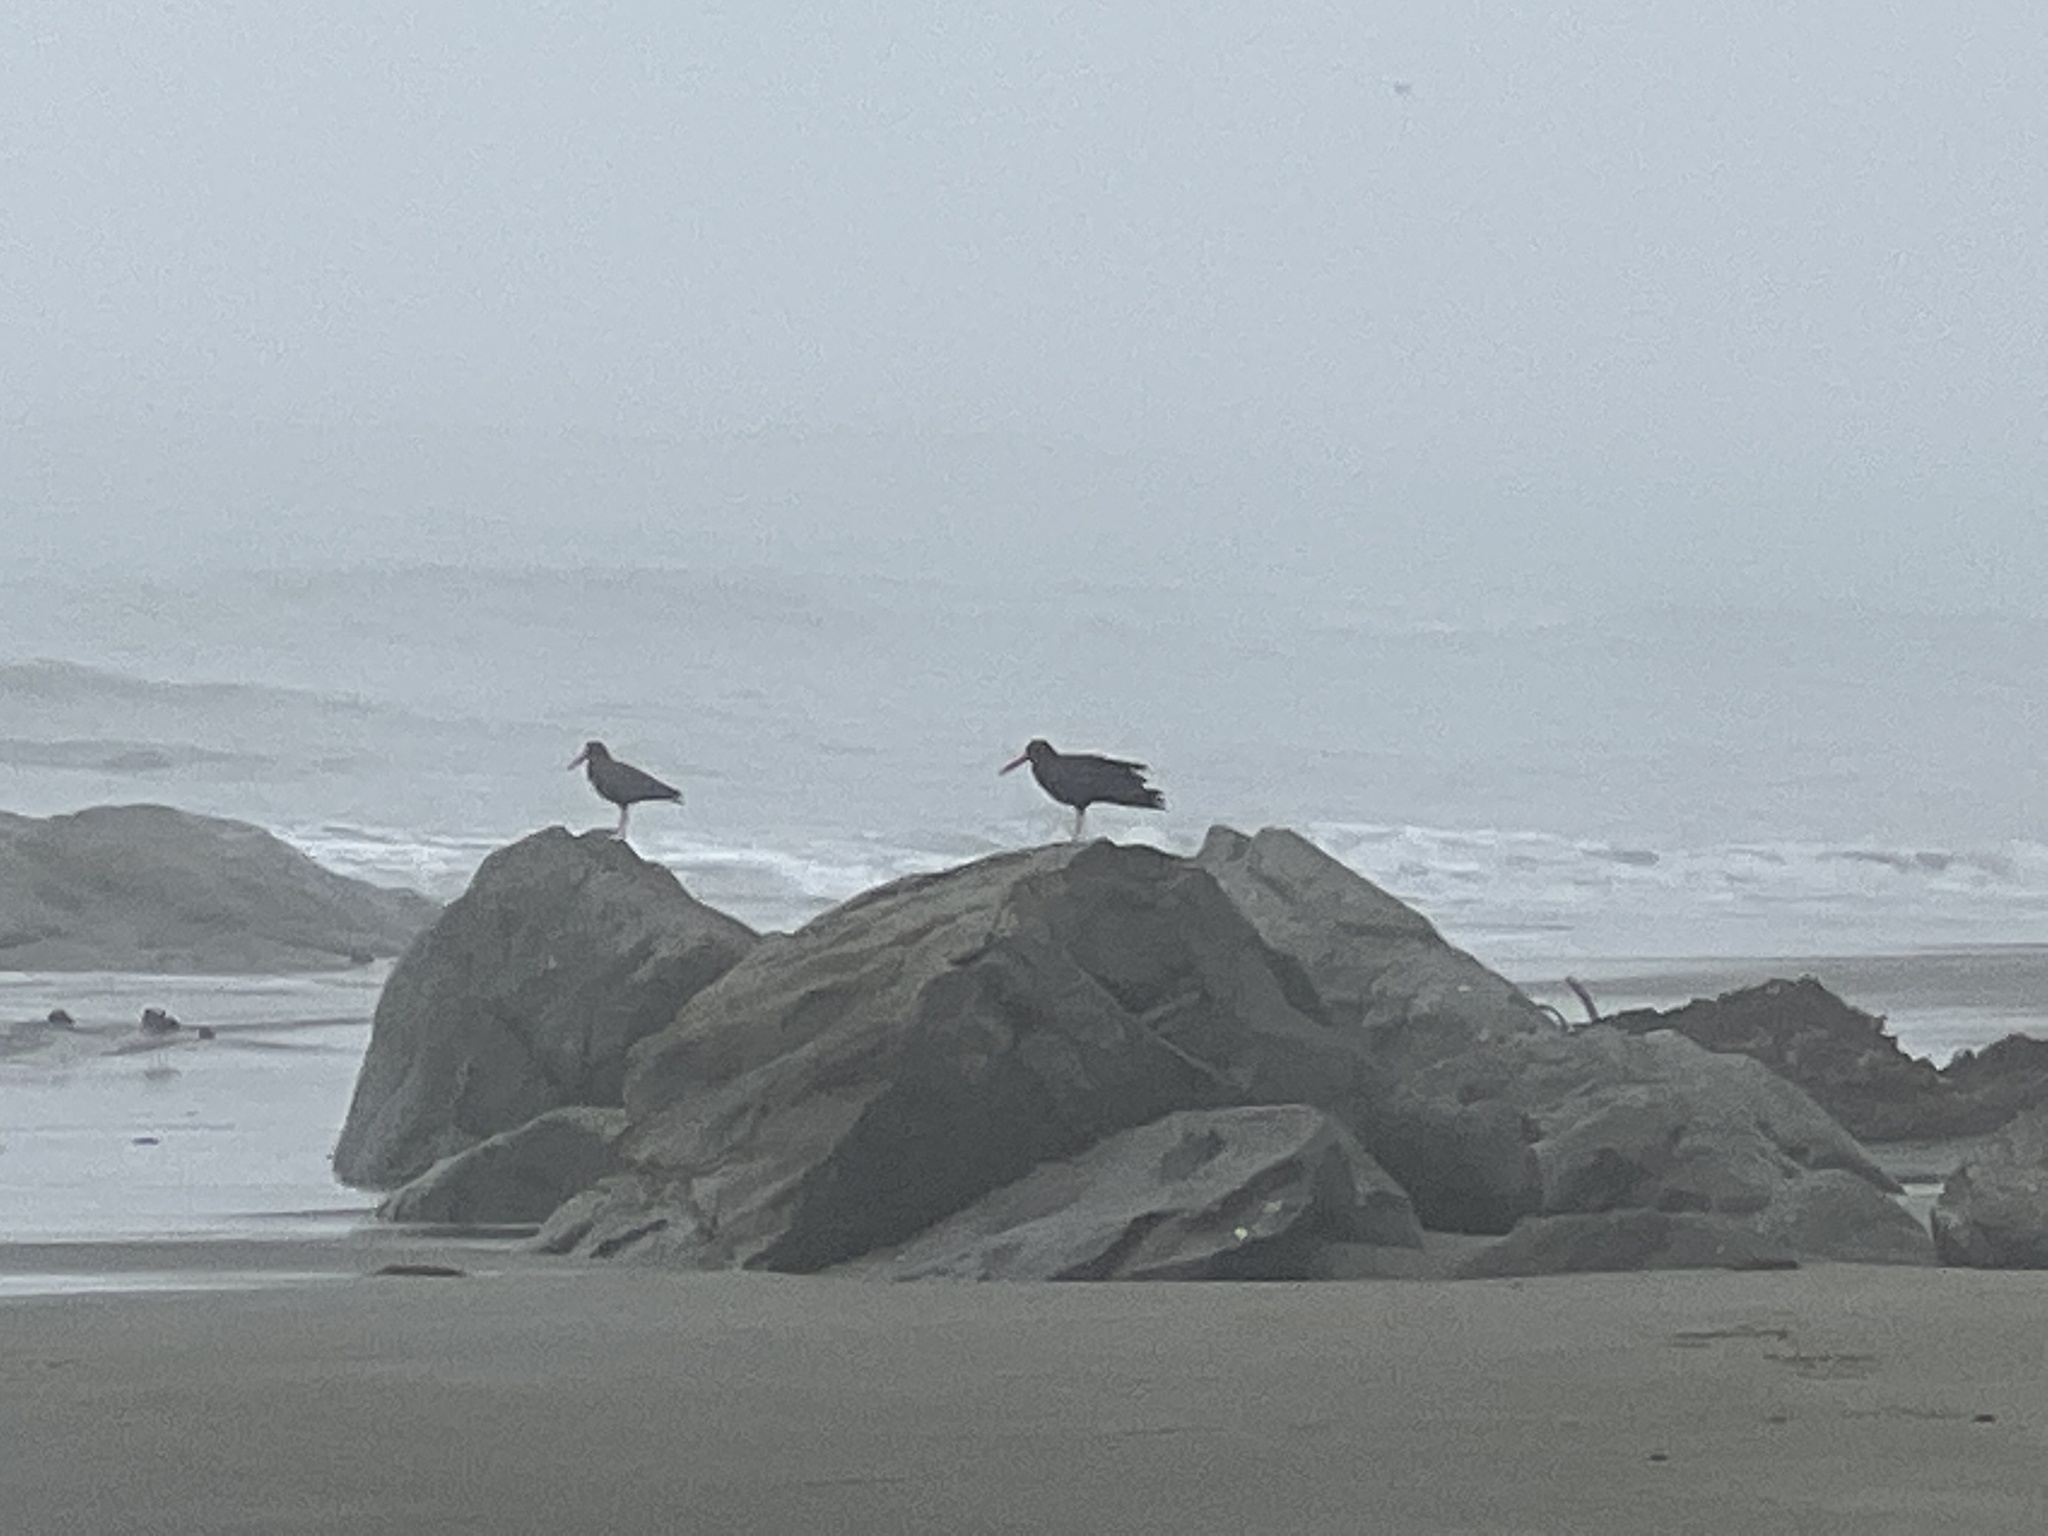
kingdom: Animalia
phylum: Chordata
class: Aves
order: Charadriiformes
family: Haematopodidae
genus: Haematopus
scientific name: Haematopus bachmani
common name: Black oystercatcher
